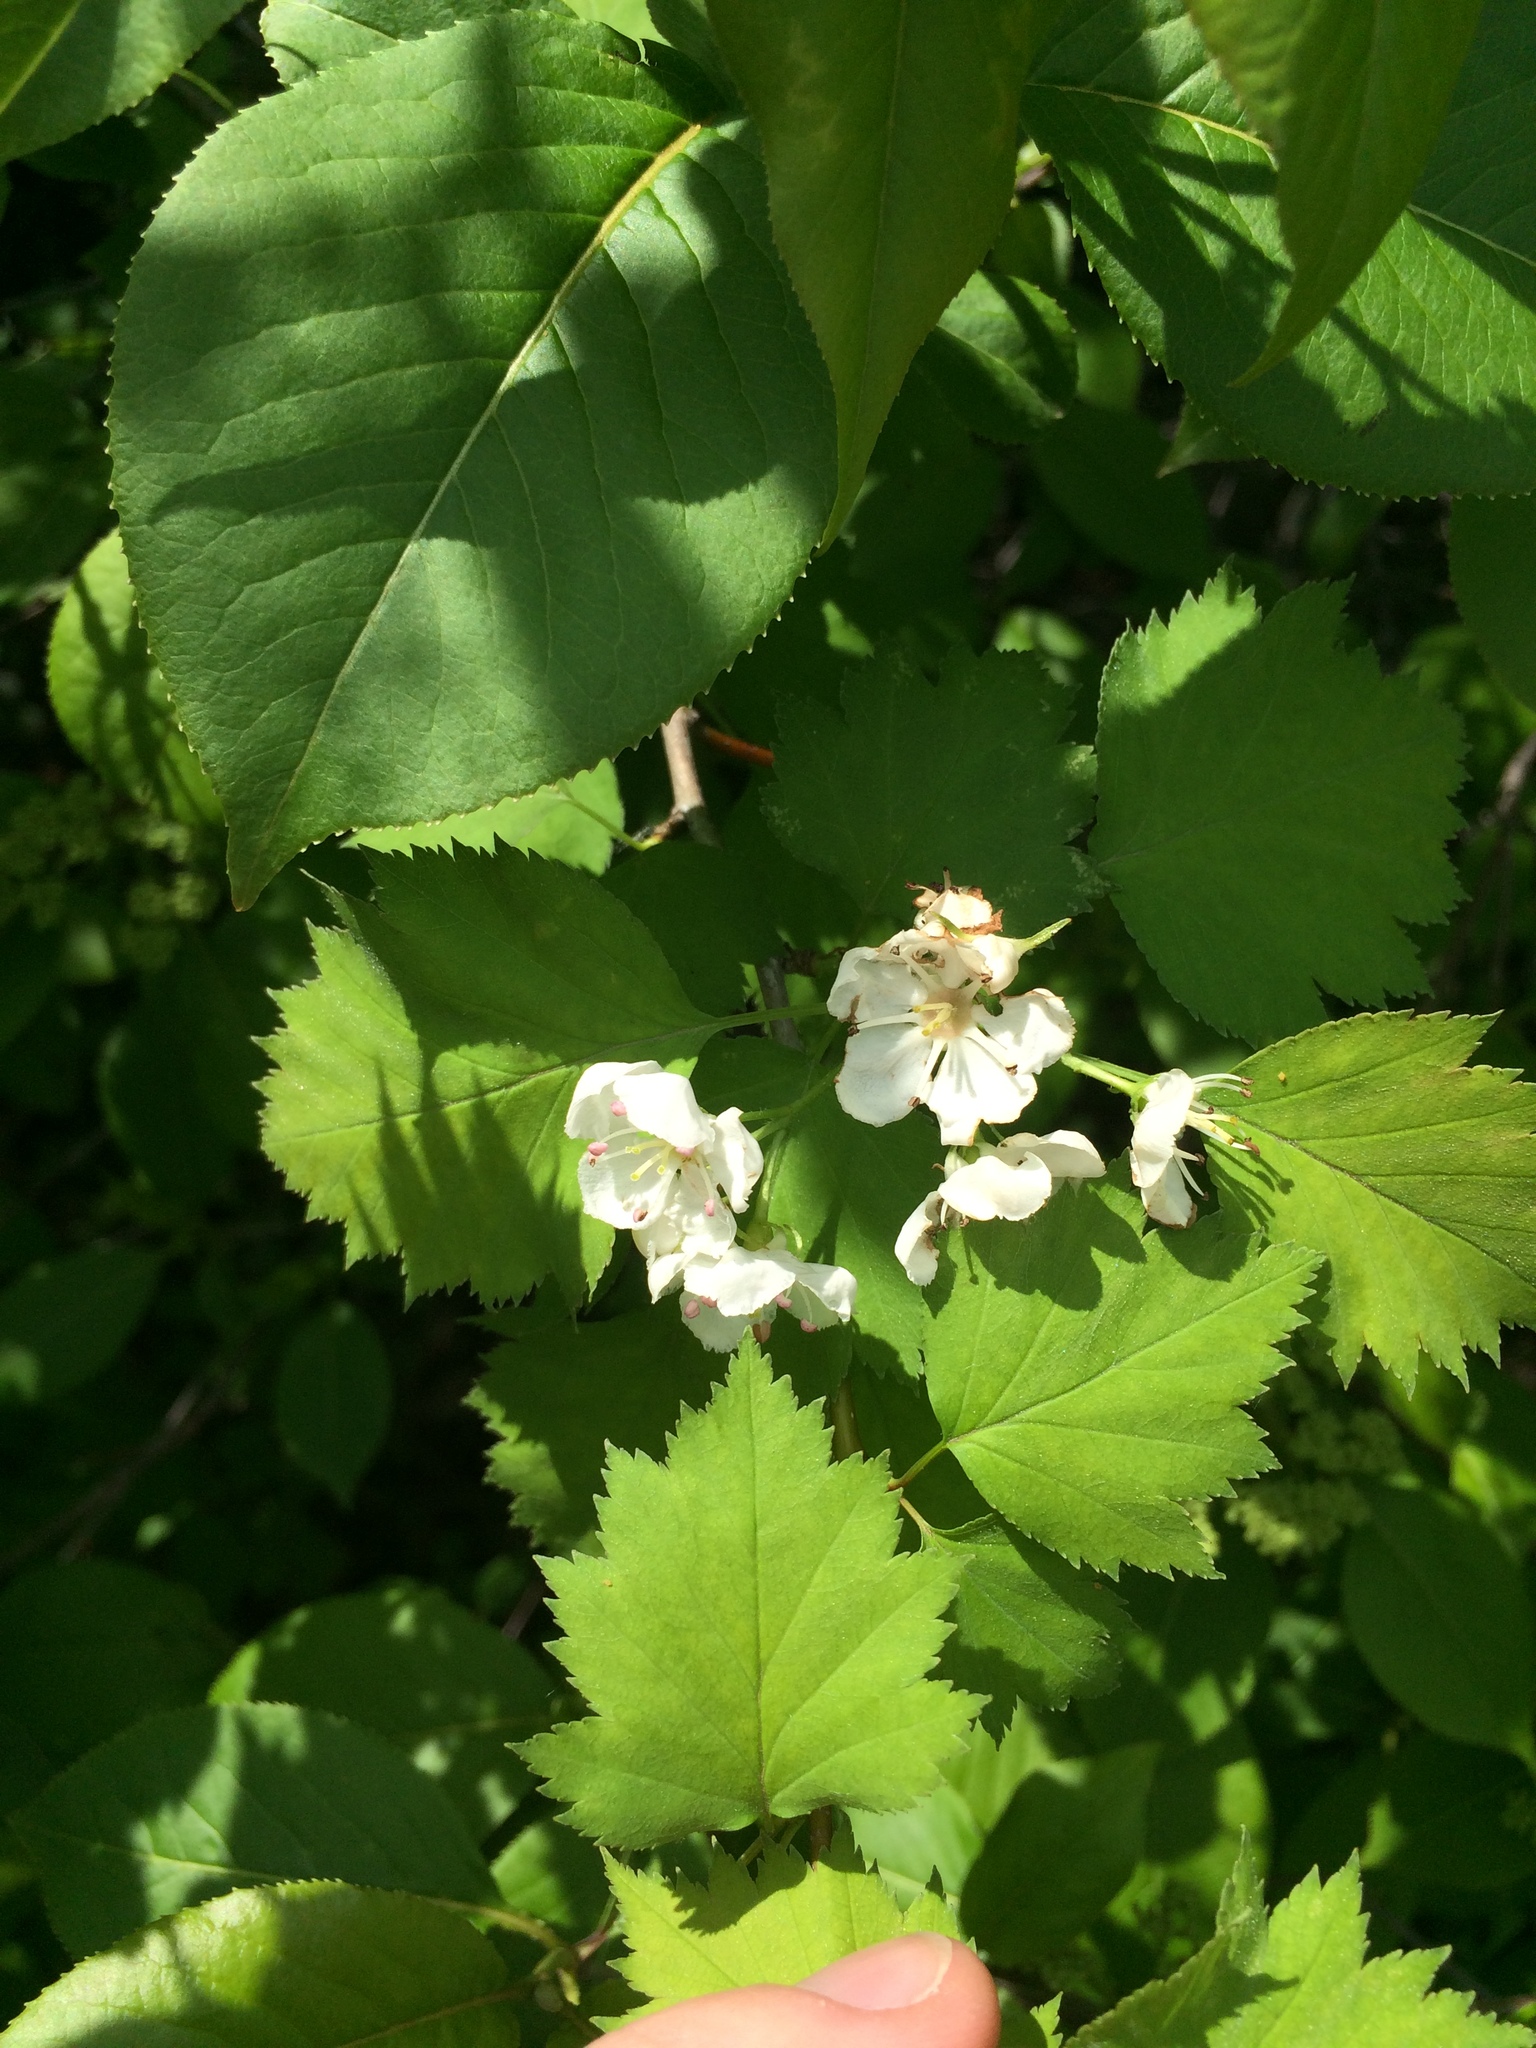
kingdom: Plantae
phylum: Tracheophyta
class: Magnoliopsida
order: Rosales
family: Rosaceae
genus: Crataegus
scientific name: Crataegus fluviatilis
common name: Fort sheridan hawthorn
